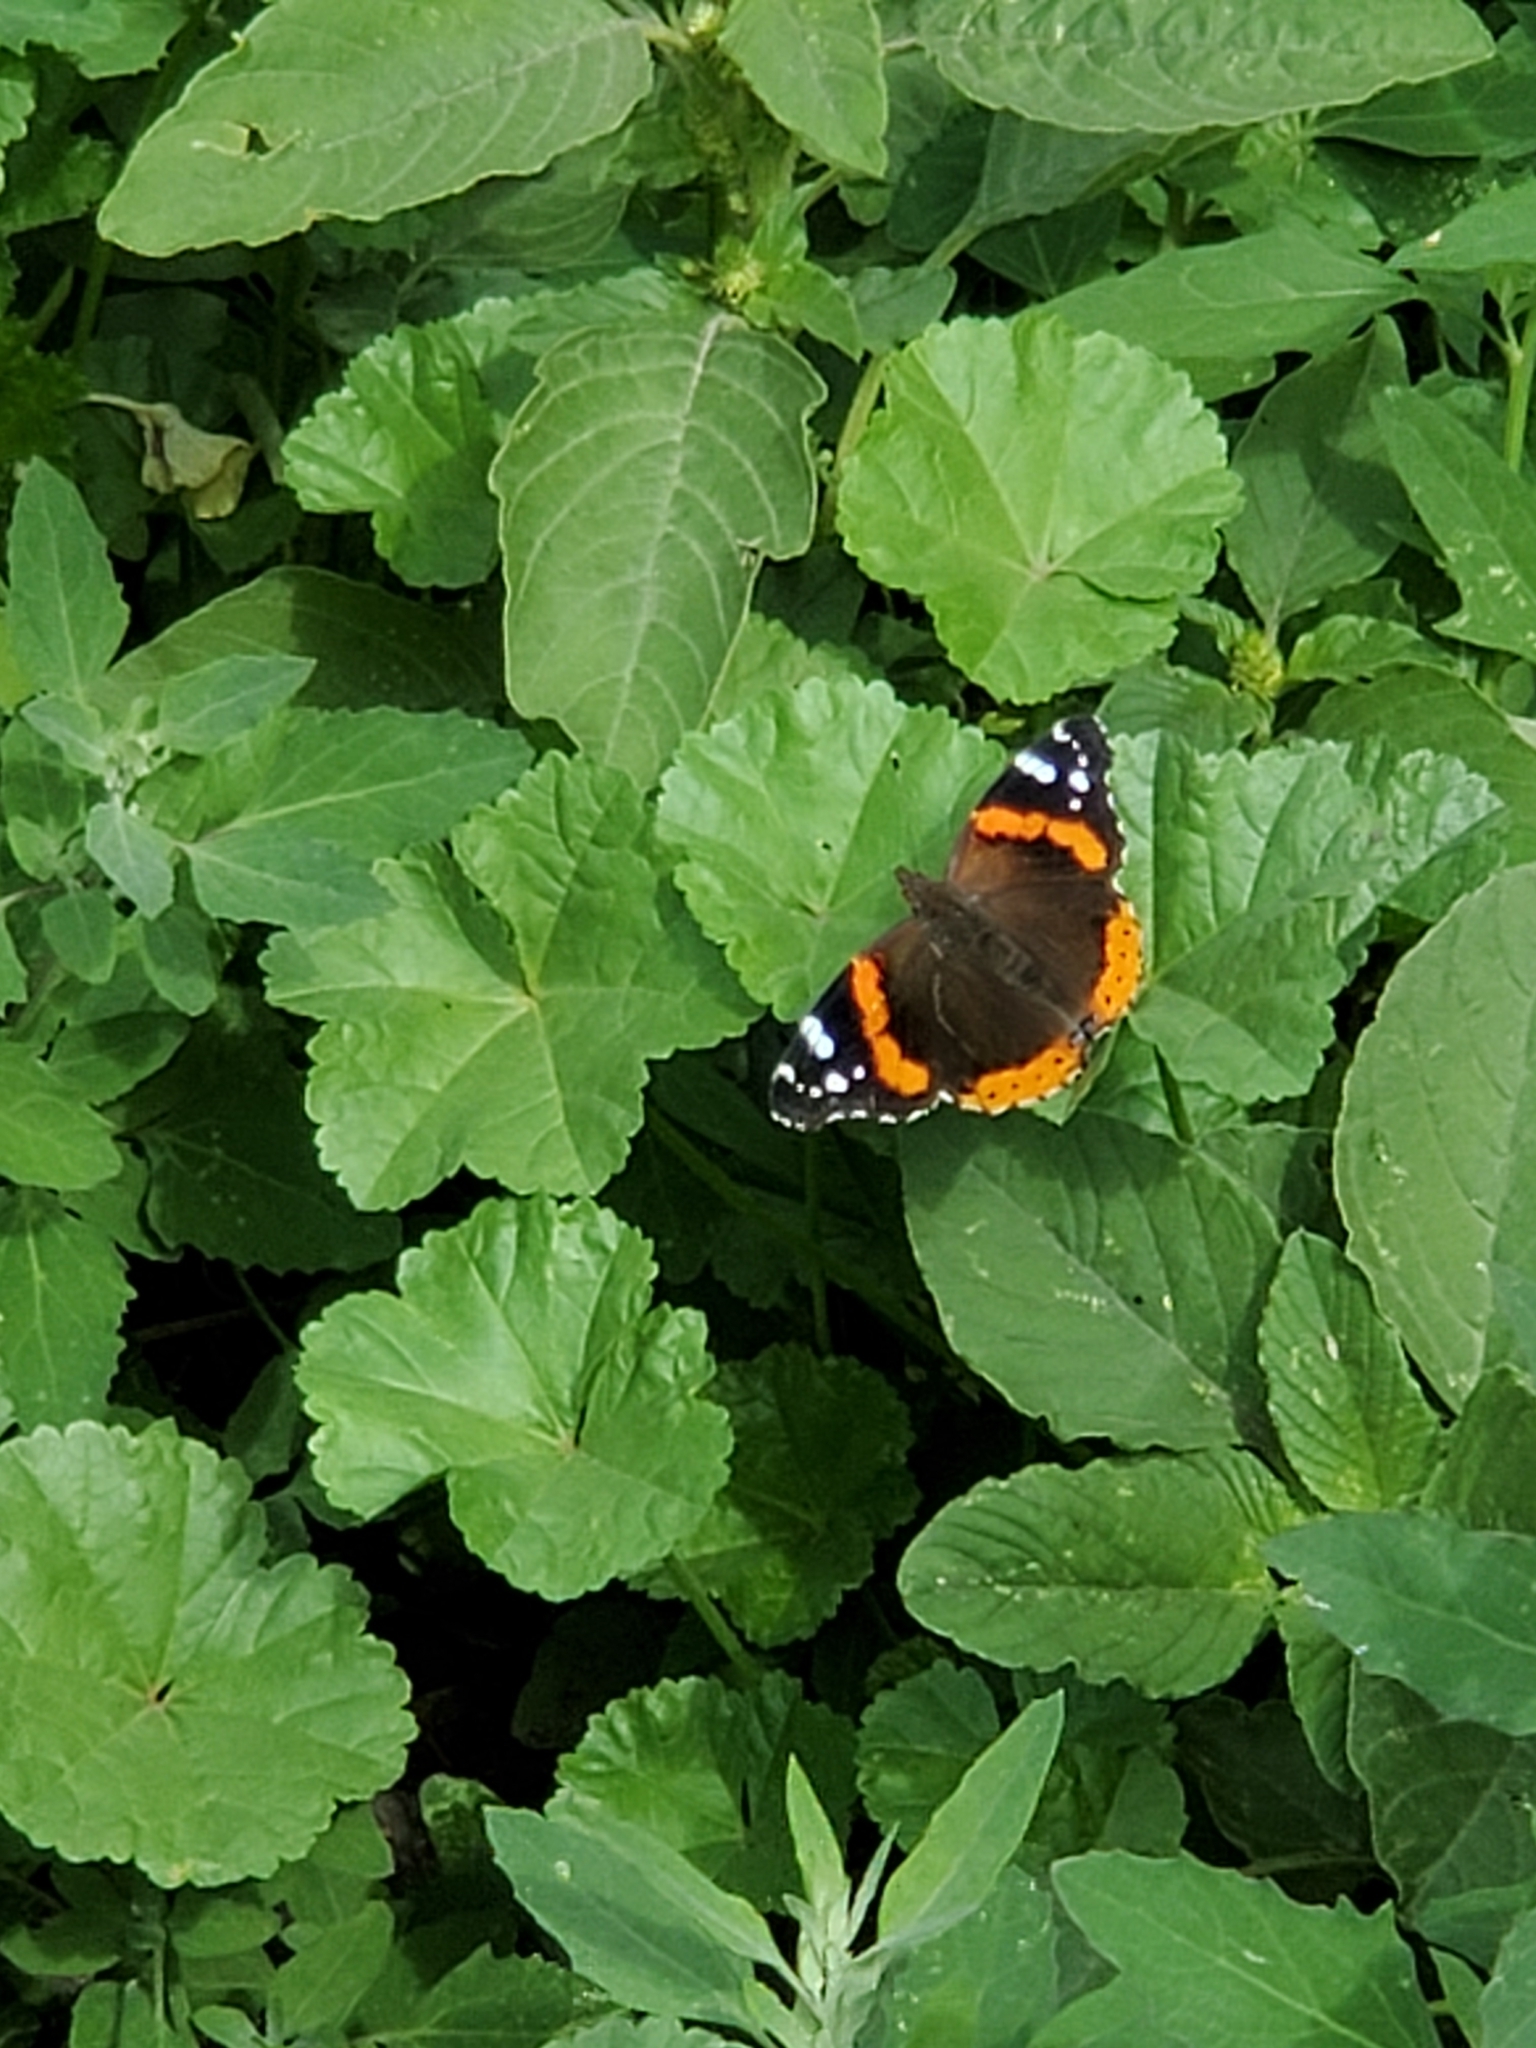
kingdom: Animalia
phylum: Arthropoda
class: Insecta
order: Lepidoptera
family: Nymphalidae
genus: Vanessa
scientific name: Vanessa atalanta
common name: Red admiral
